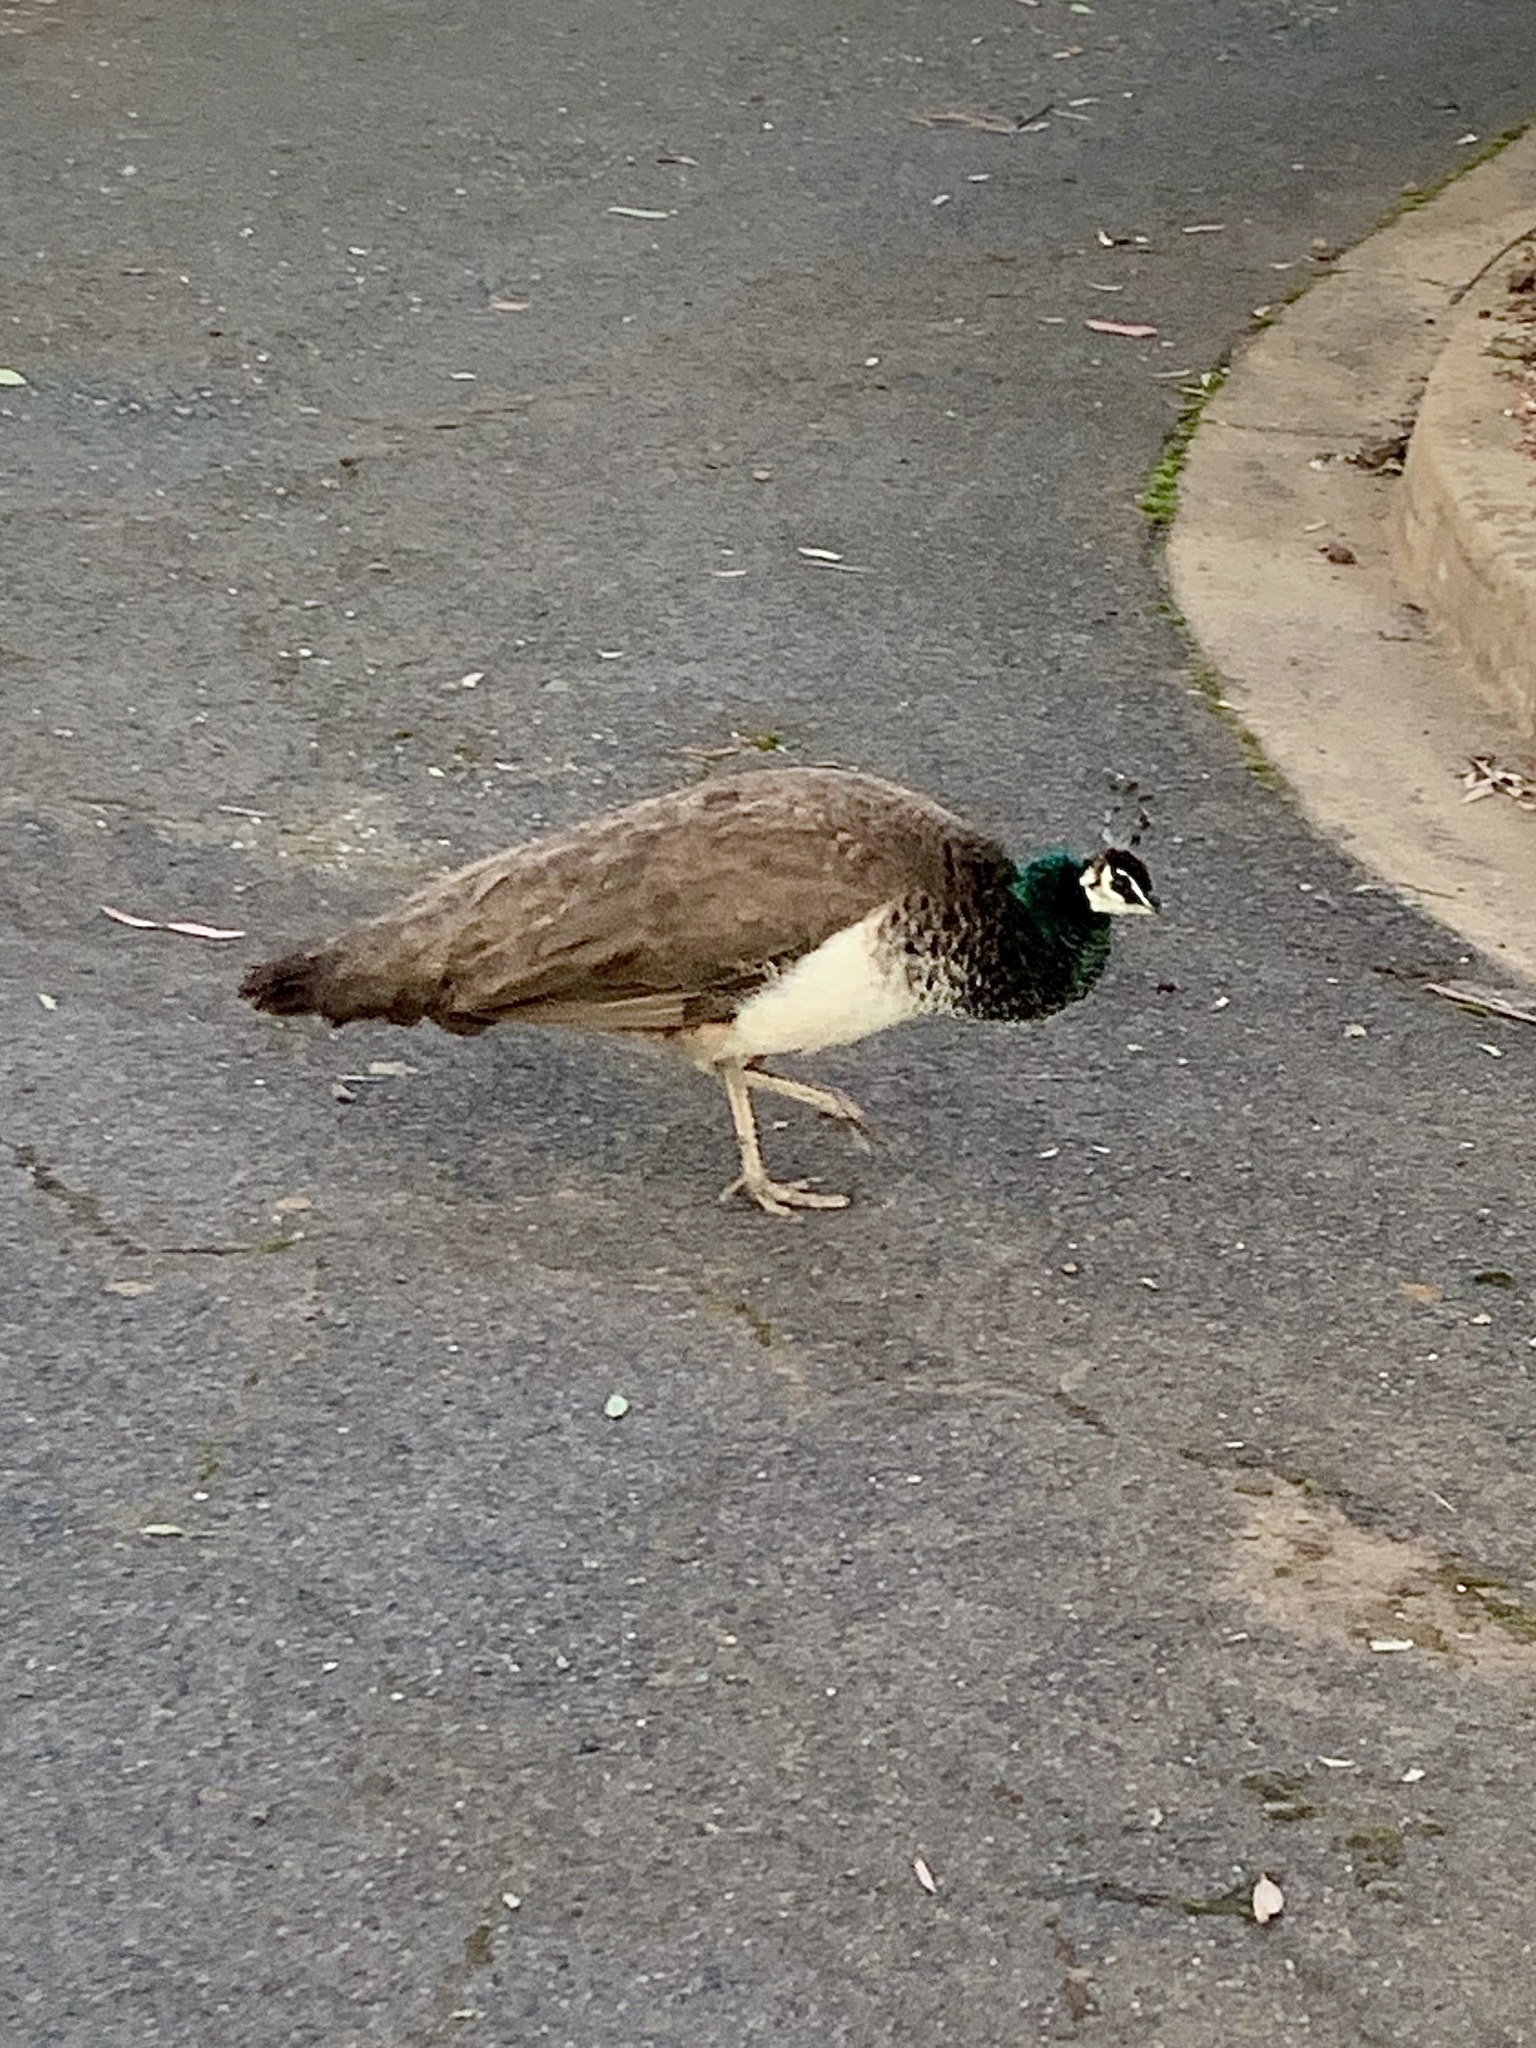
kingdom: Animalia
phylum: Chordata
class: Aves
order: Galliformes
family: Phasianidae
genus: Pavo
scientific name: Pavo cristatus
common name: Indian peafowl
